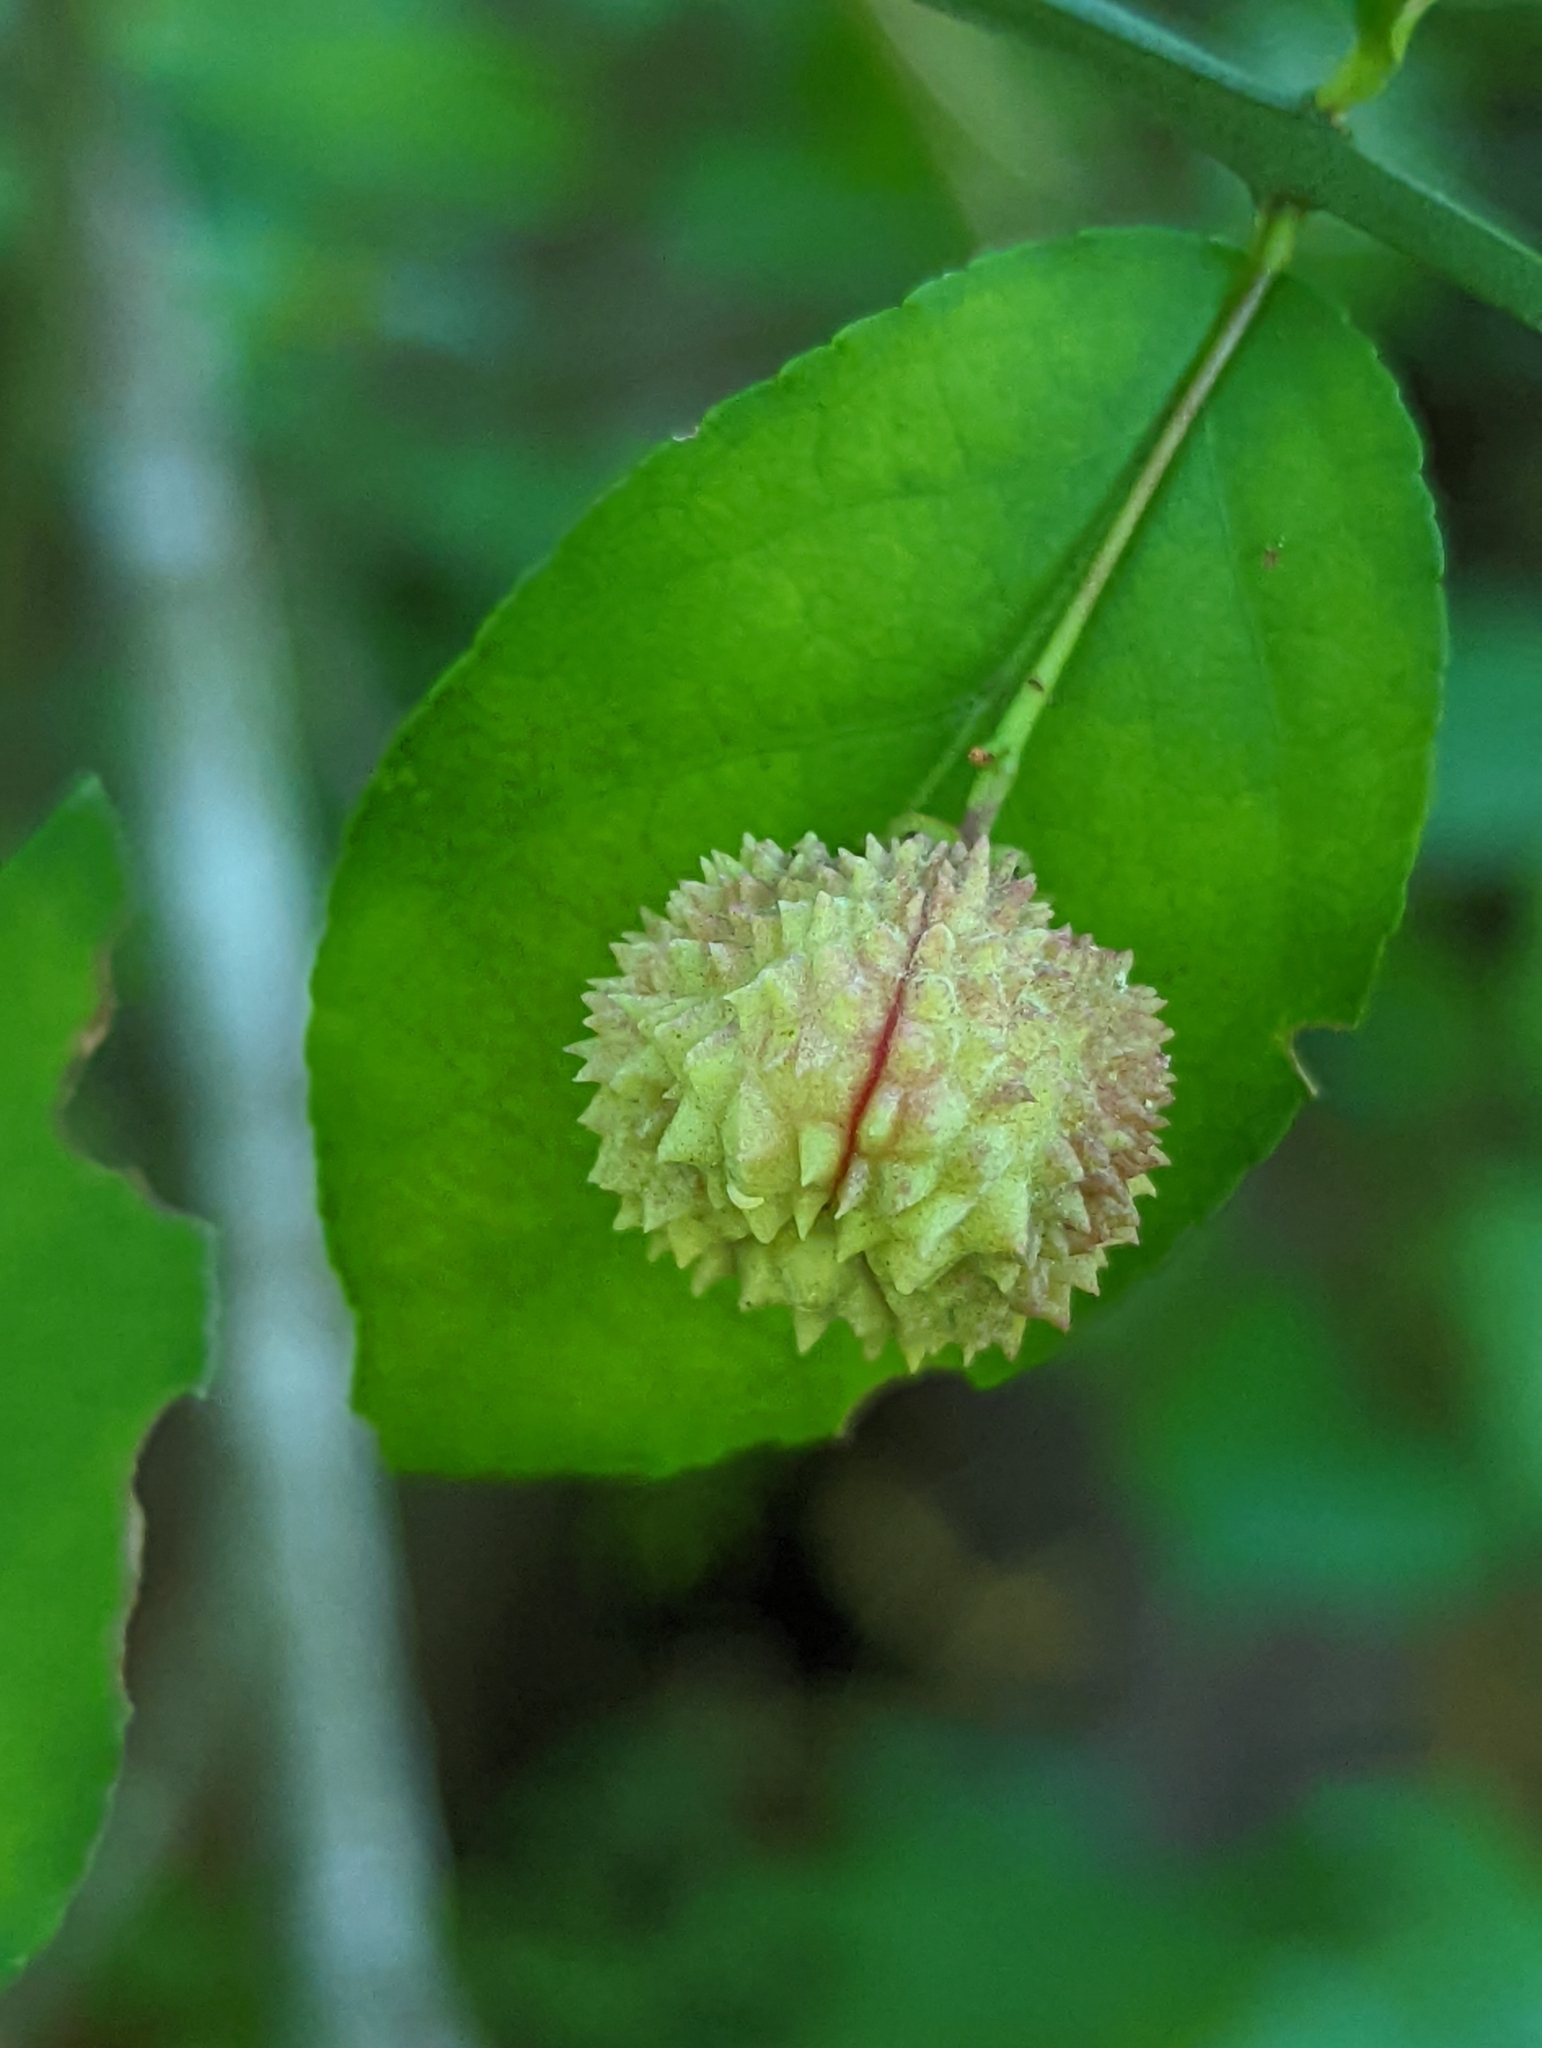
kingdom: Plantae
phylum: Tracheophyta
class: Magnoliopsida
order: Celastrales
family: Celastraceae
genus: Euonymus
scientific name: Euonymus americanus
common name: Bursting-heart
